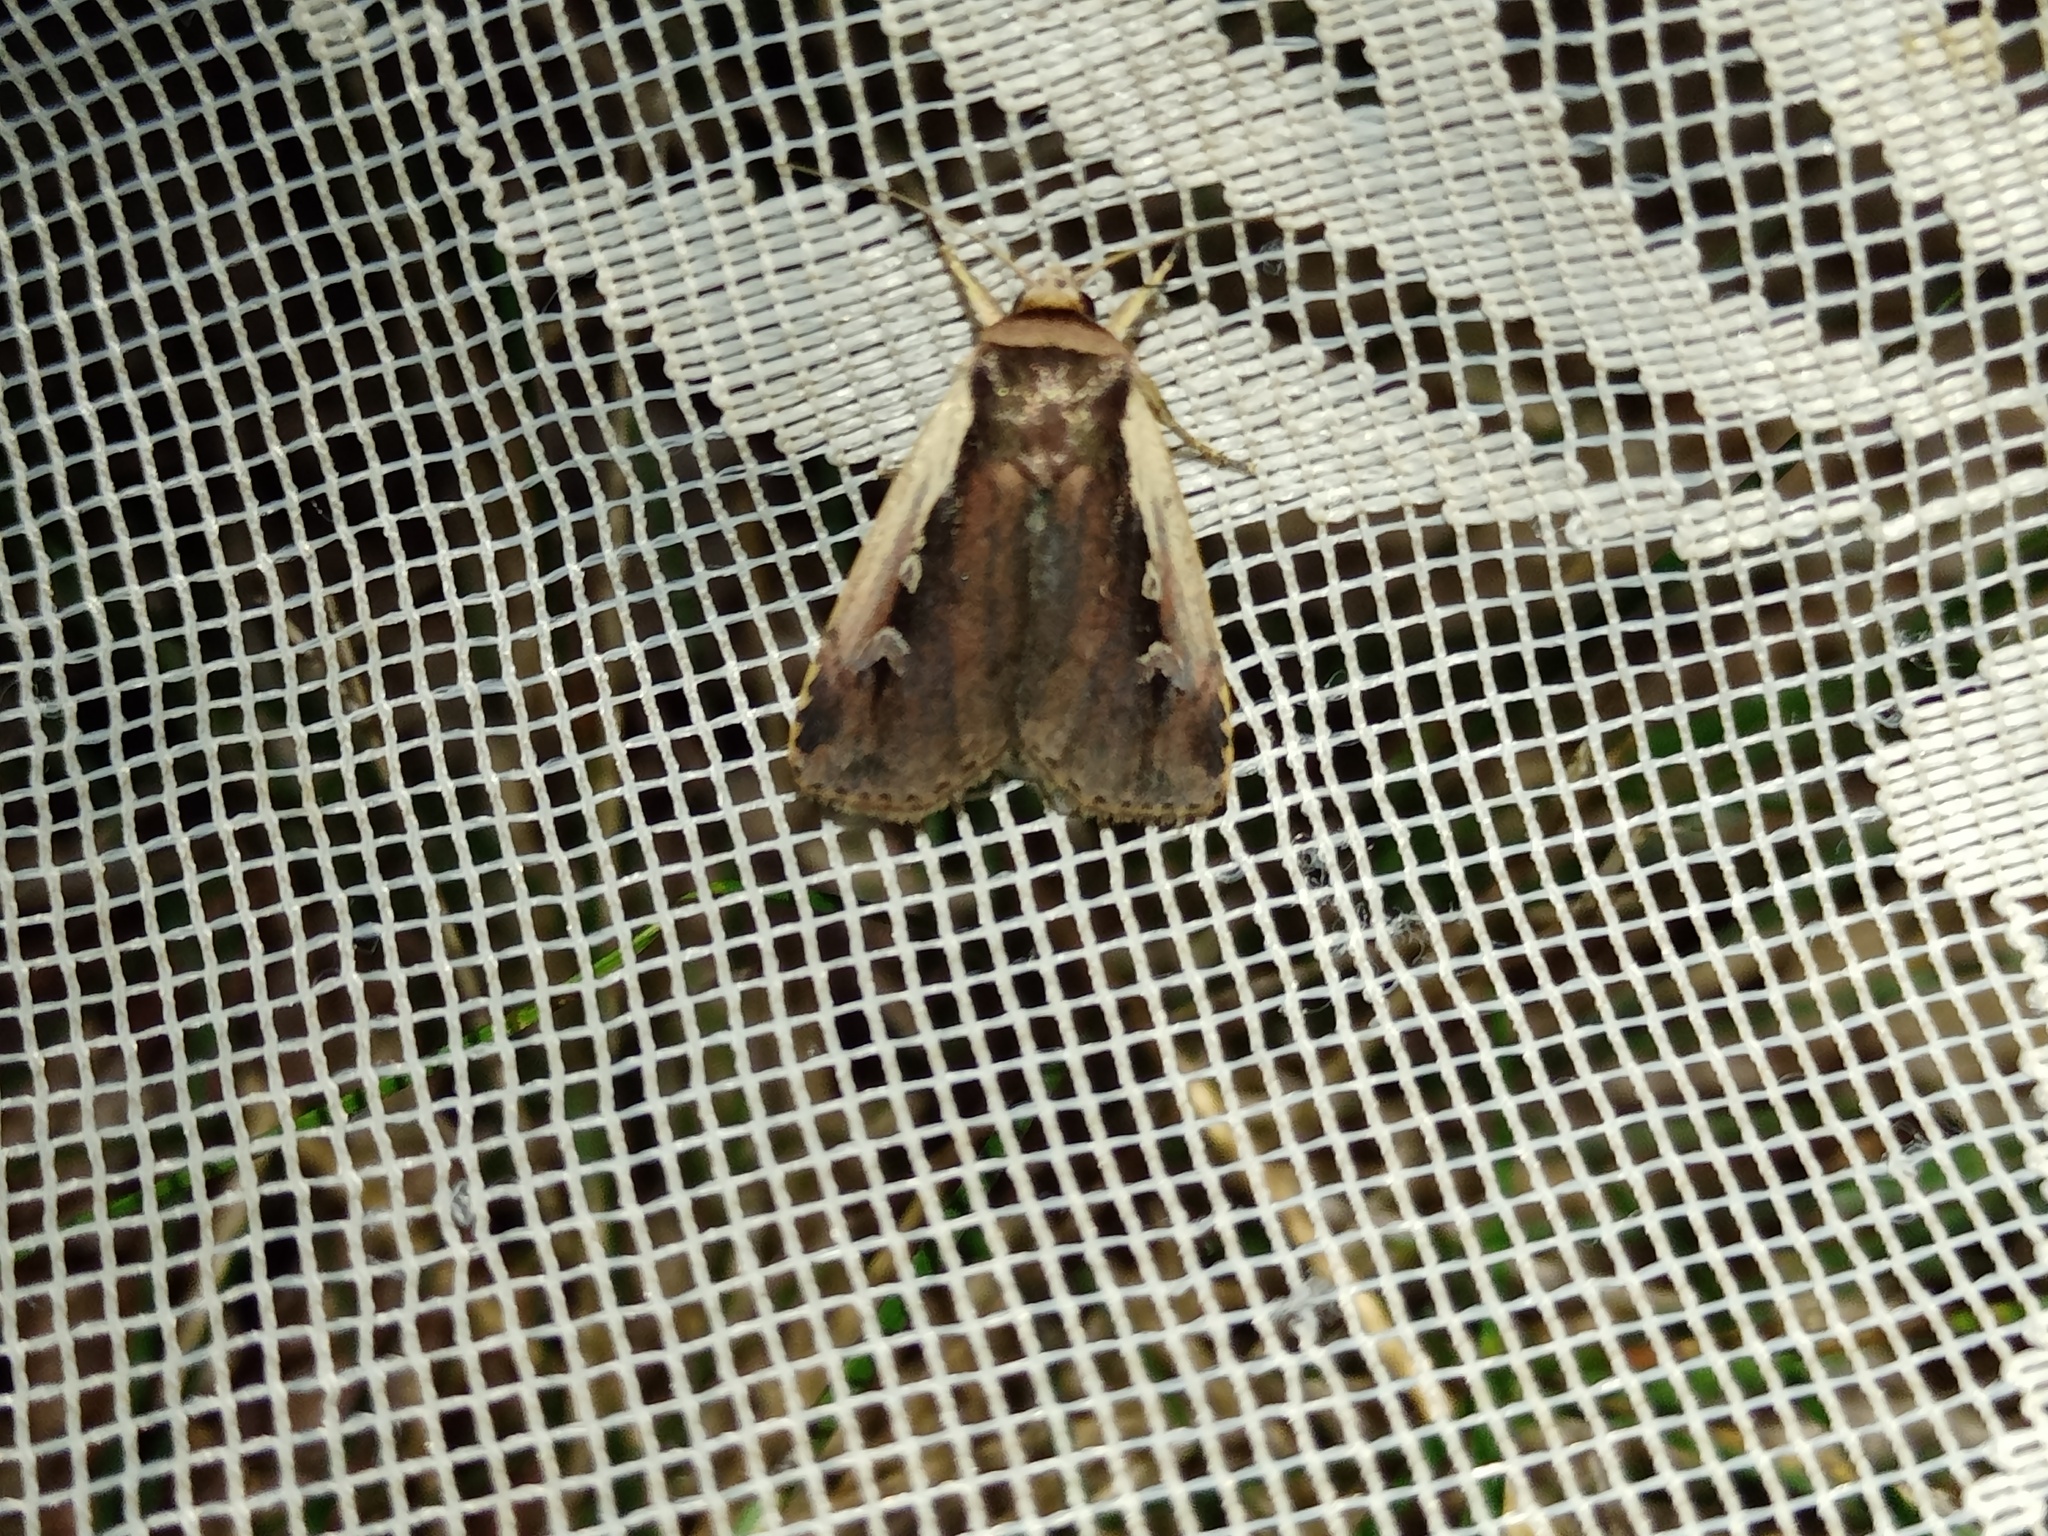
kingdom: Animalia
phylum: Arthropoda
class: Insecta
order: Lepidoptera
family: Noctuidae
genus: Ochropleura
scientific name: Ochropleura plecta
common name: Flame shoulder
